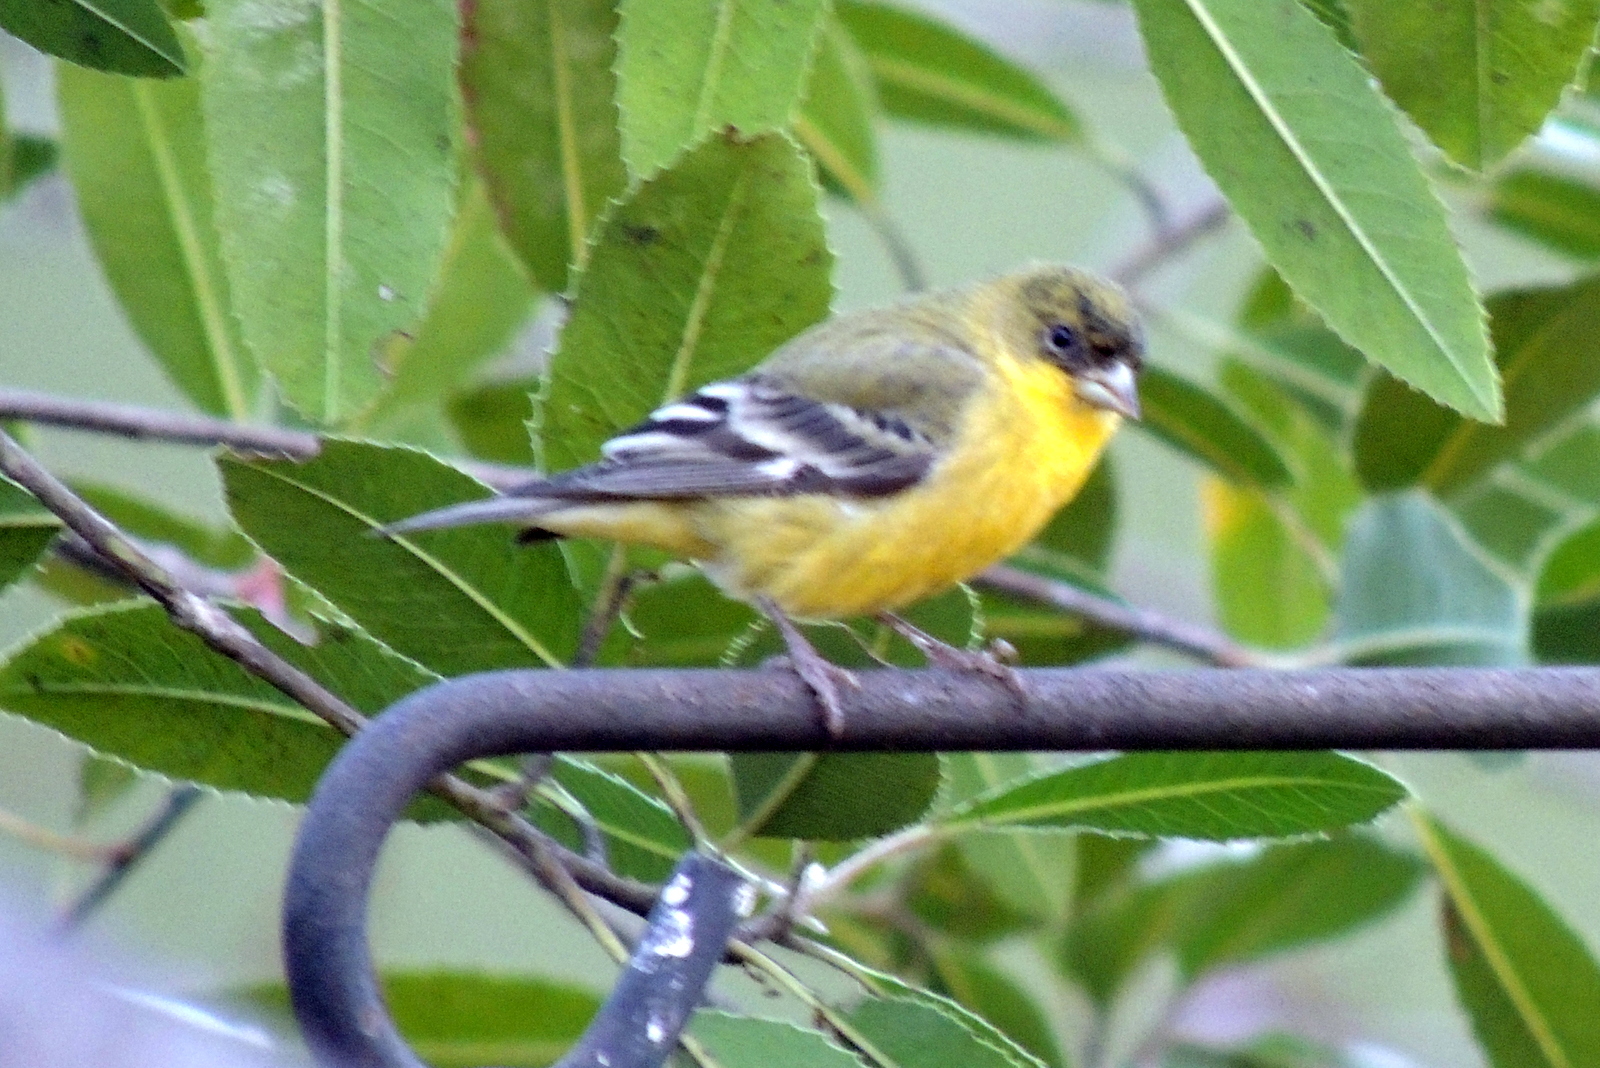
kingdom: Animalia
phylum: Chordata
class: Aves
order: Passeriformes
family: Fringillidae
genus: Spinus
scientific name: Spinus psaltria
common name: Lesser goldfinch
